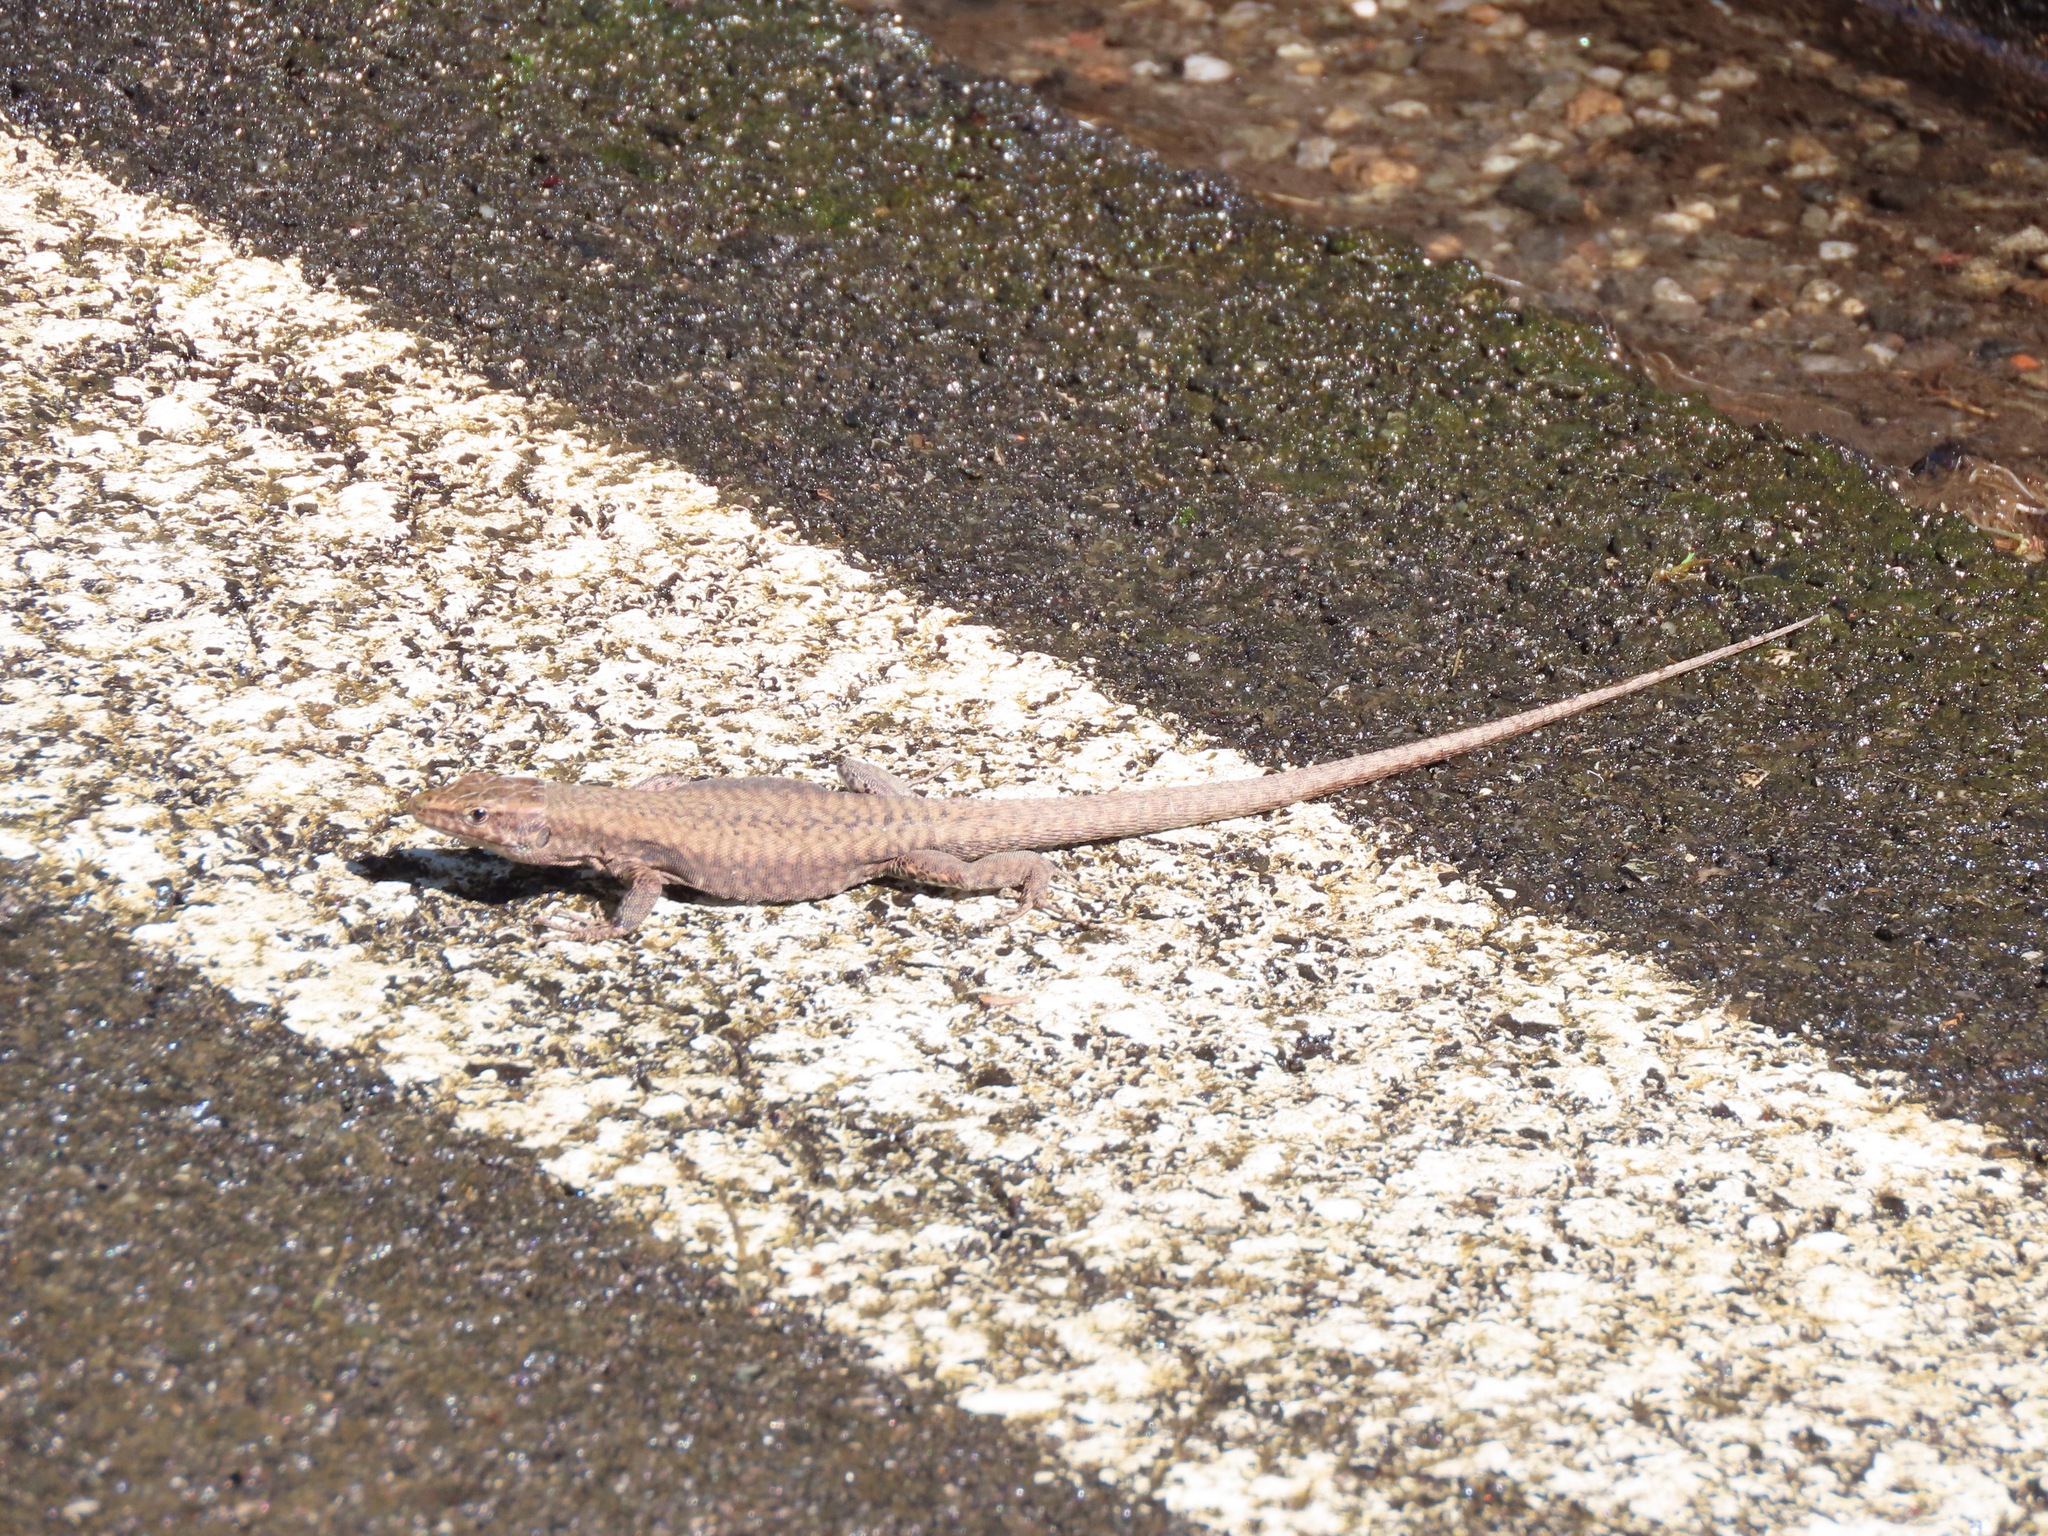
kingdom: Animalia
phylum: Chordata
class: Squamata
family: Lacertidae
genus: Podarcis
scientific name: Podarcis muralis
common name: Common wall lizard
